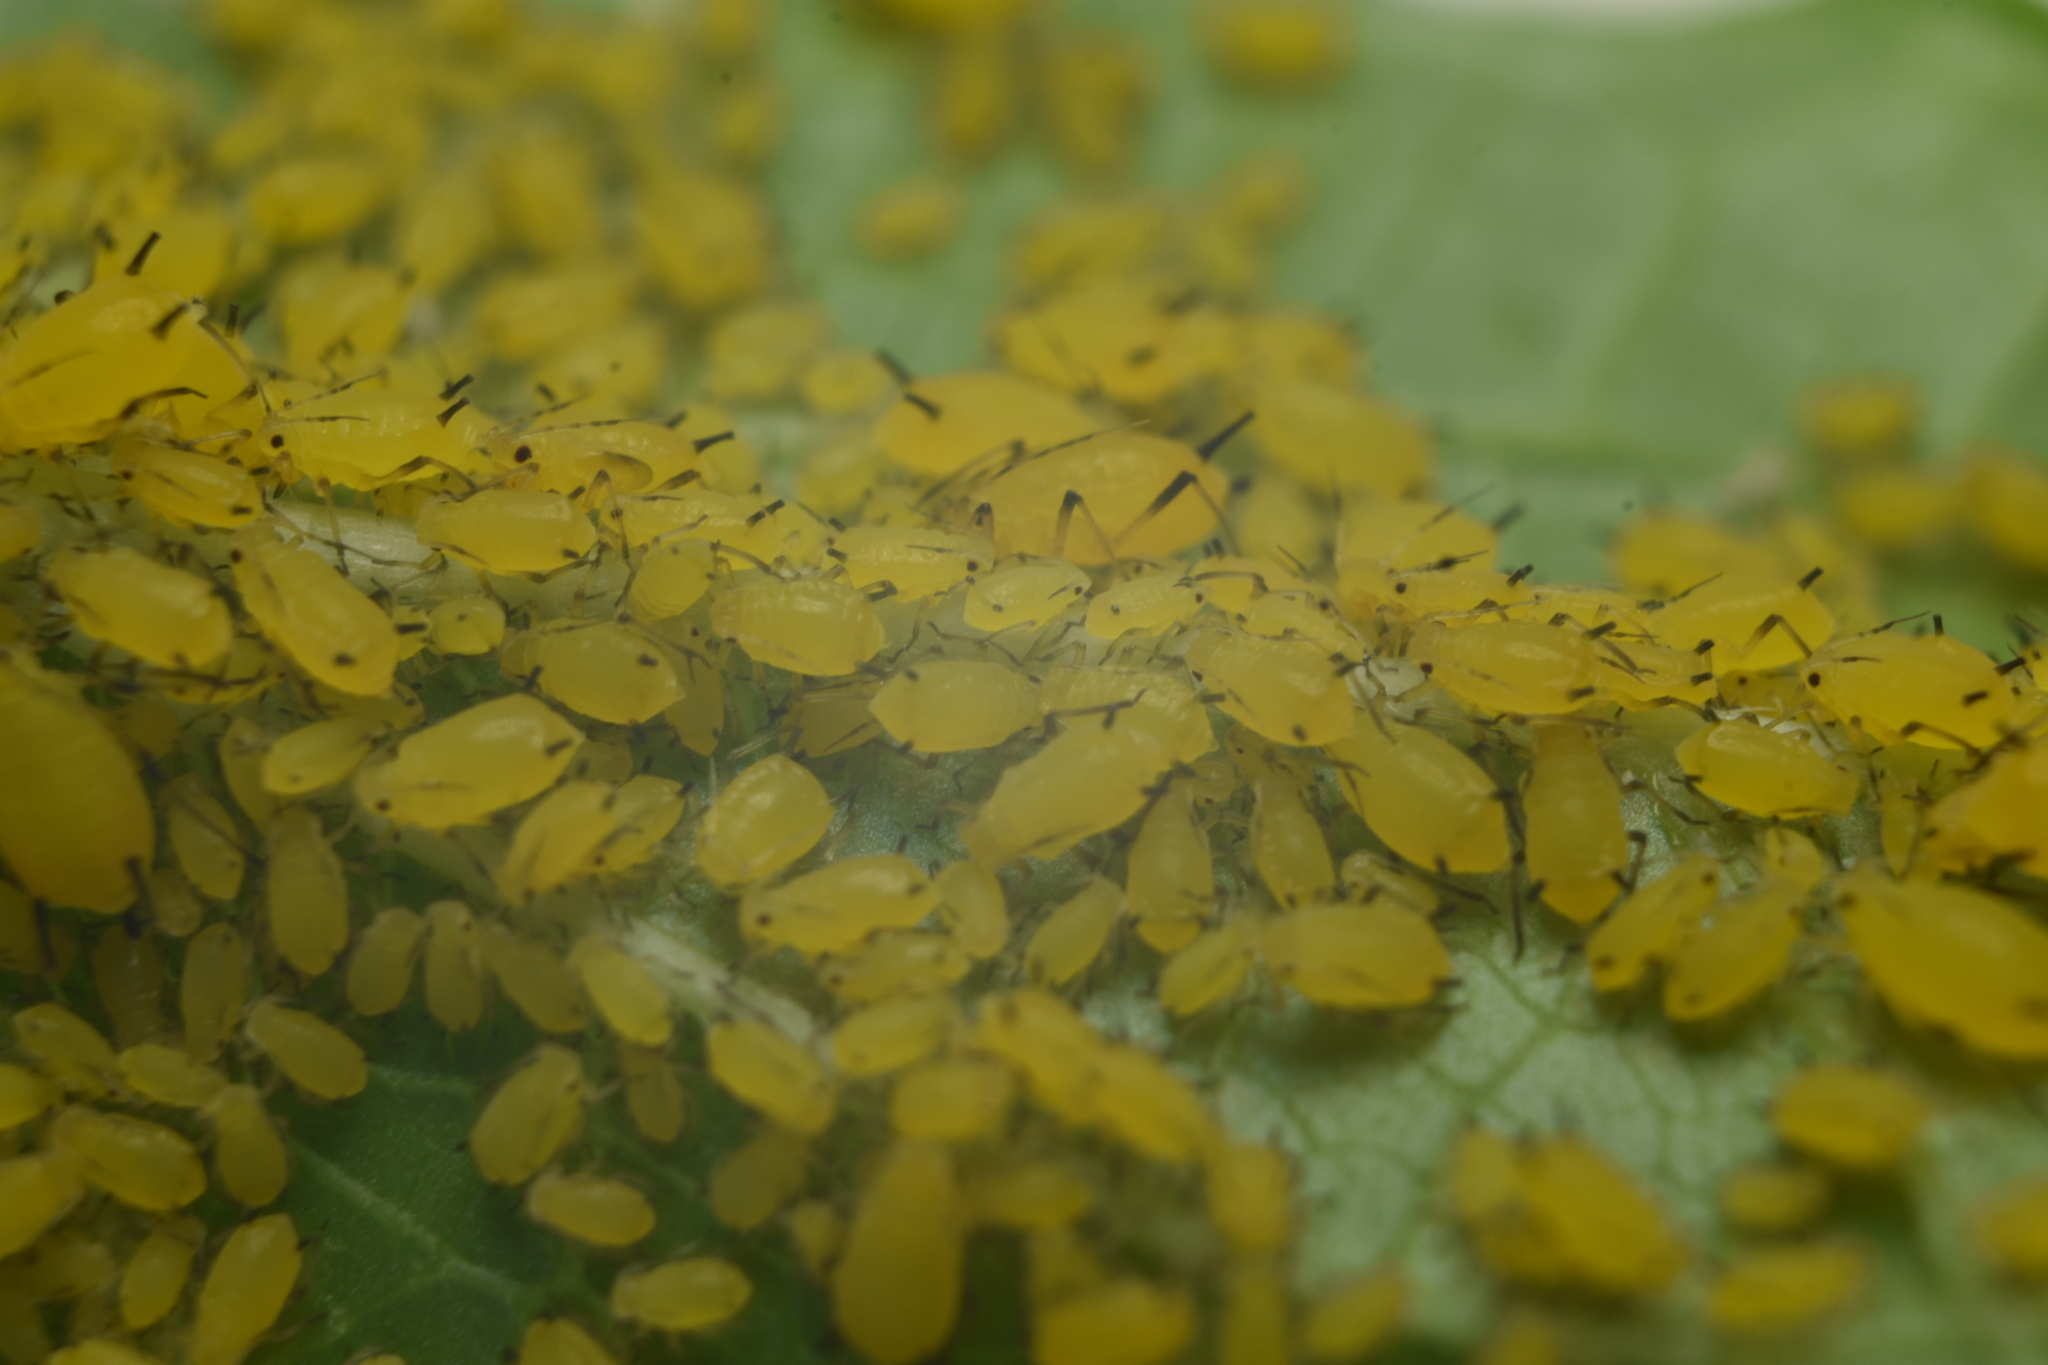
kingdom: Animalia
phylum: Arthropoda
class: Insecta
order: Hemiptera
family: Aphididae
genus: Aphis
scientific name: Aphis nerii
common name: Oleander aphid
